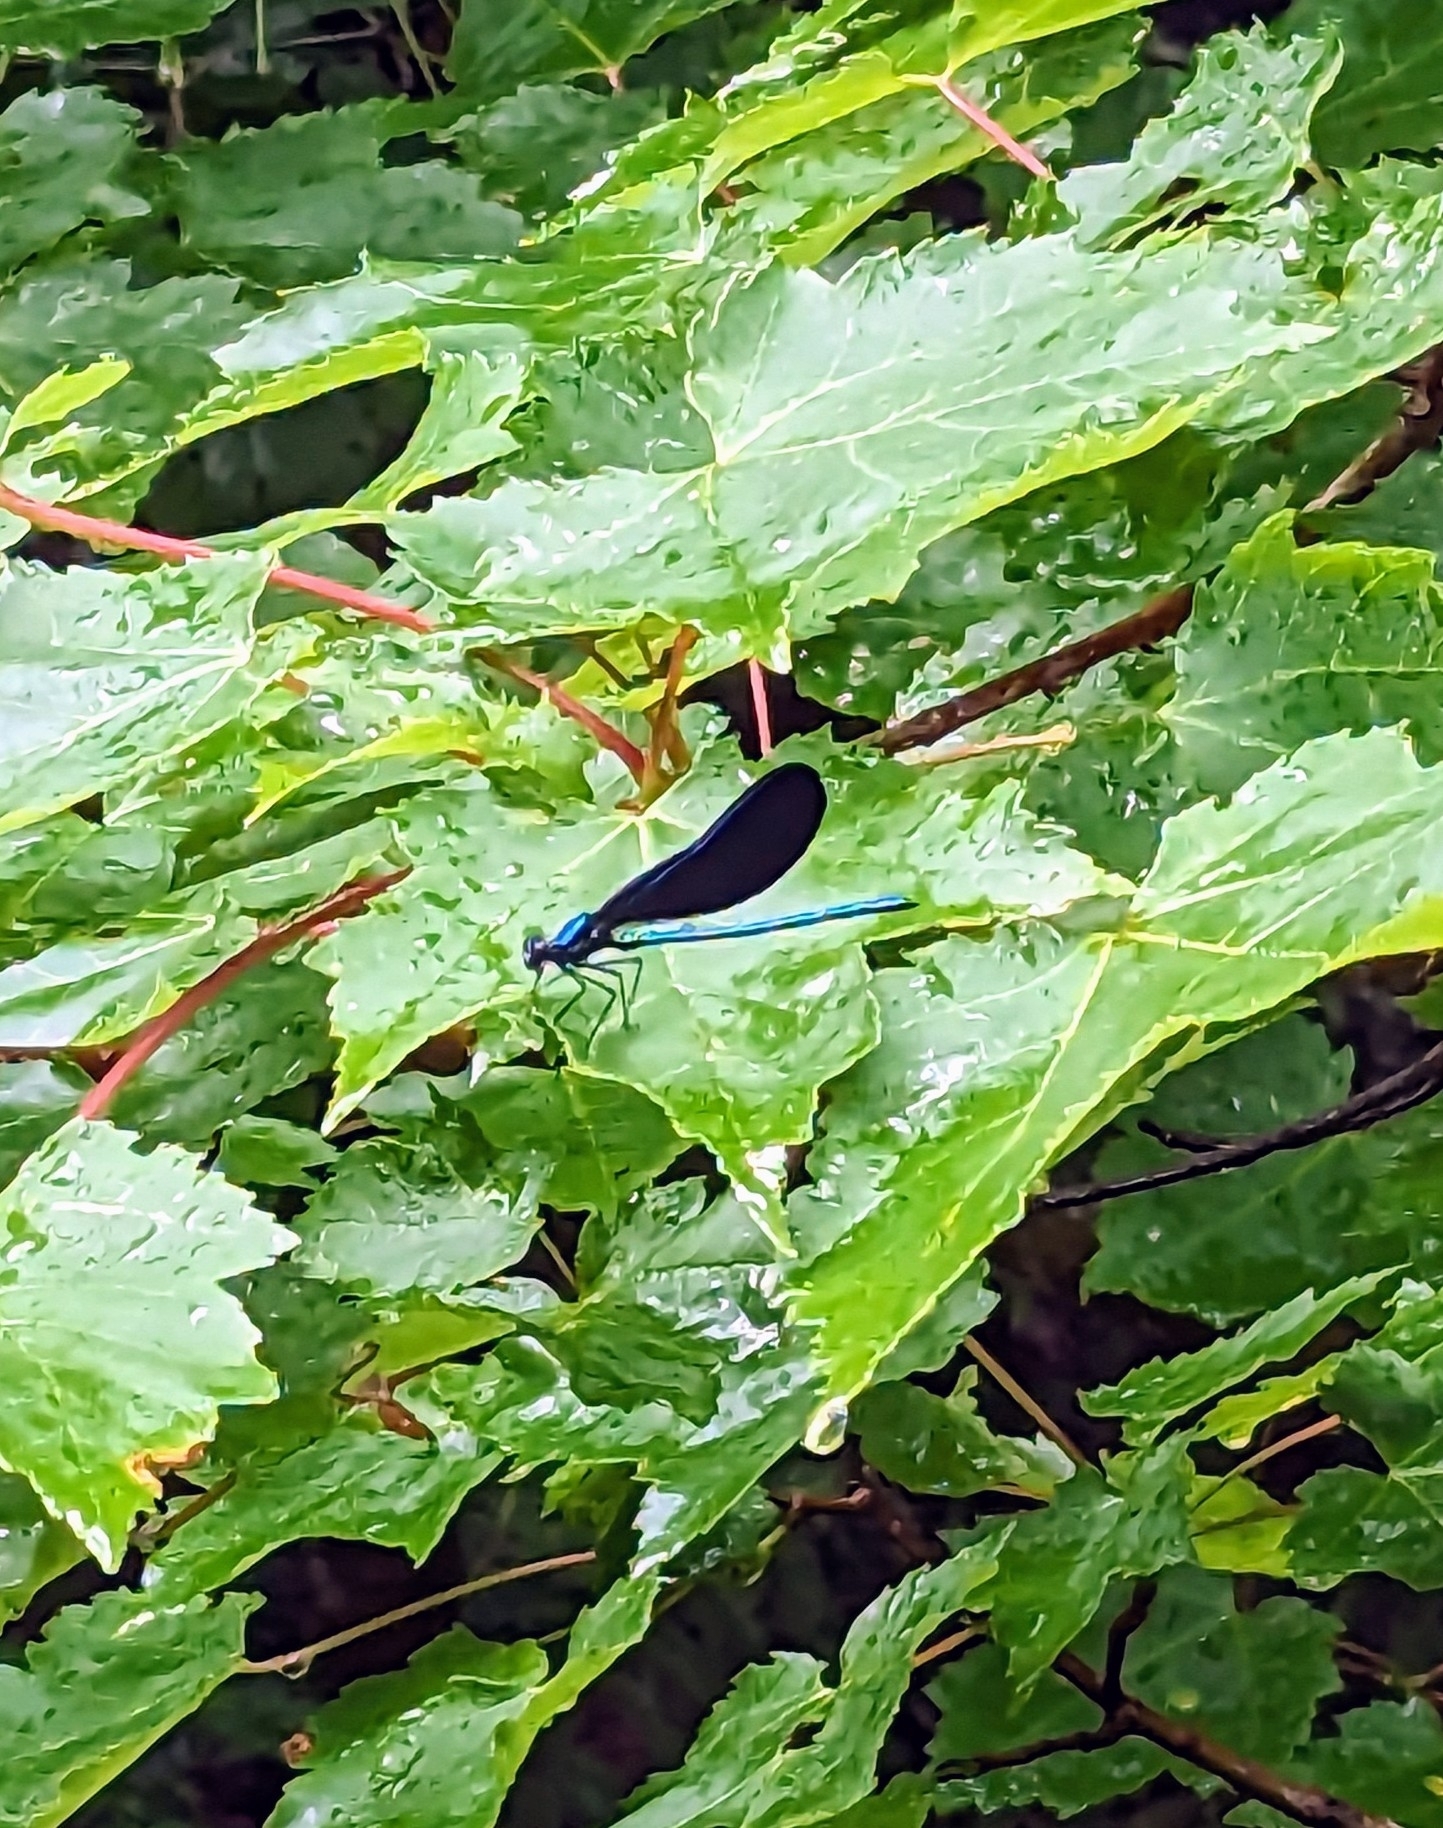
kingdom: Animalia
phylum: Arthropoda
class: Insecta
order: Odonata
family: Calopterygidae
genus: Calopteryx
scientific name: Calopteryx maculata
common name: Ebony jewelwing
